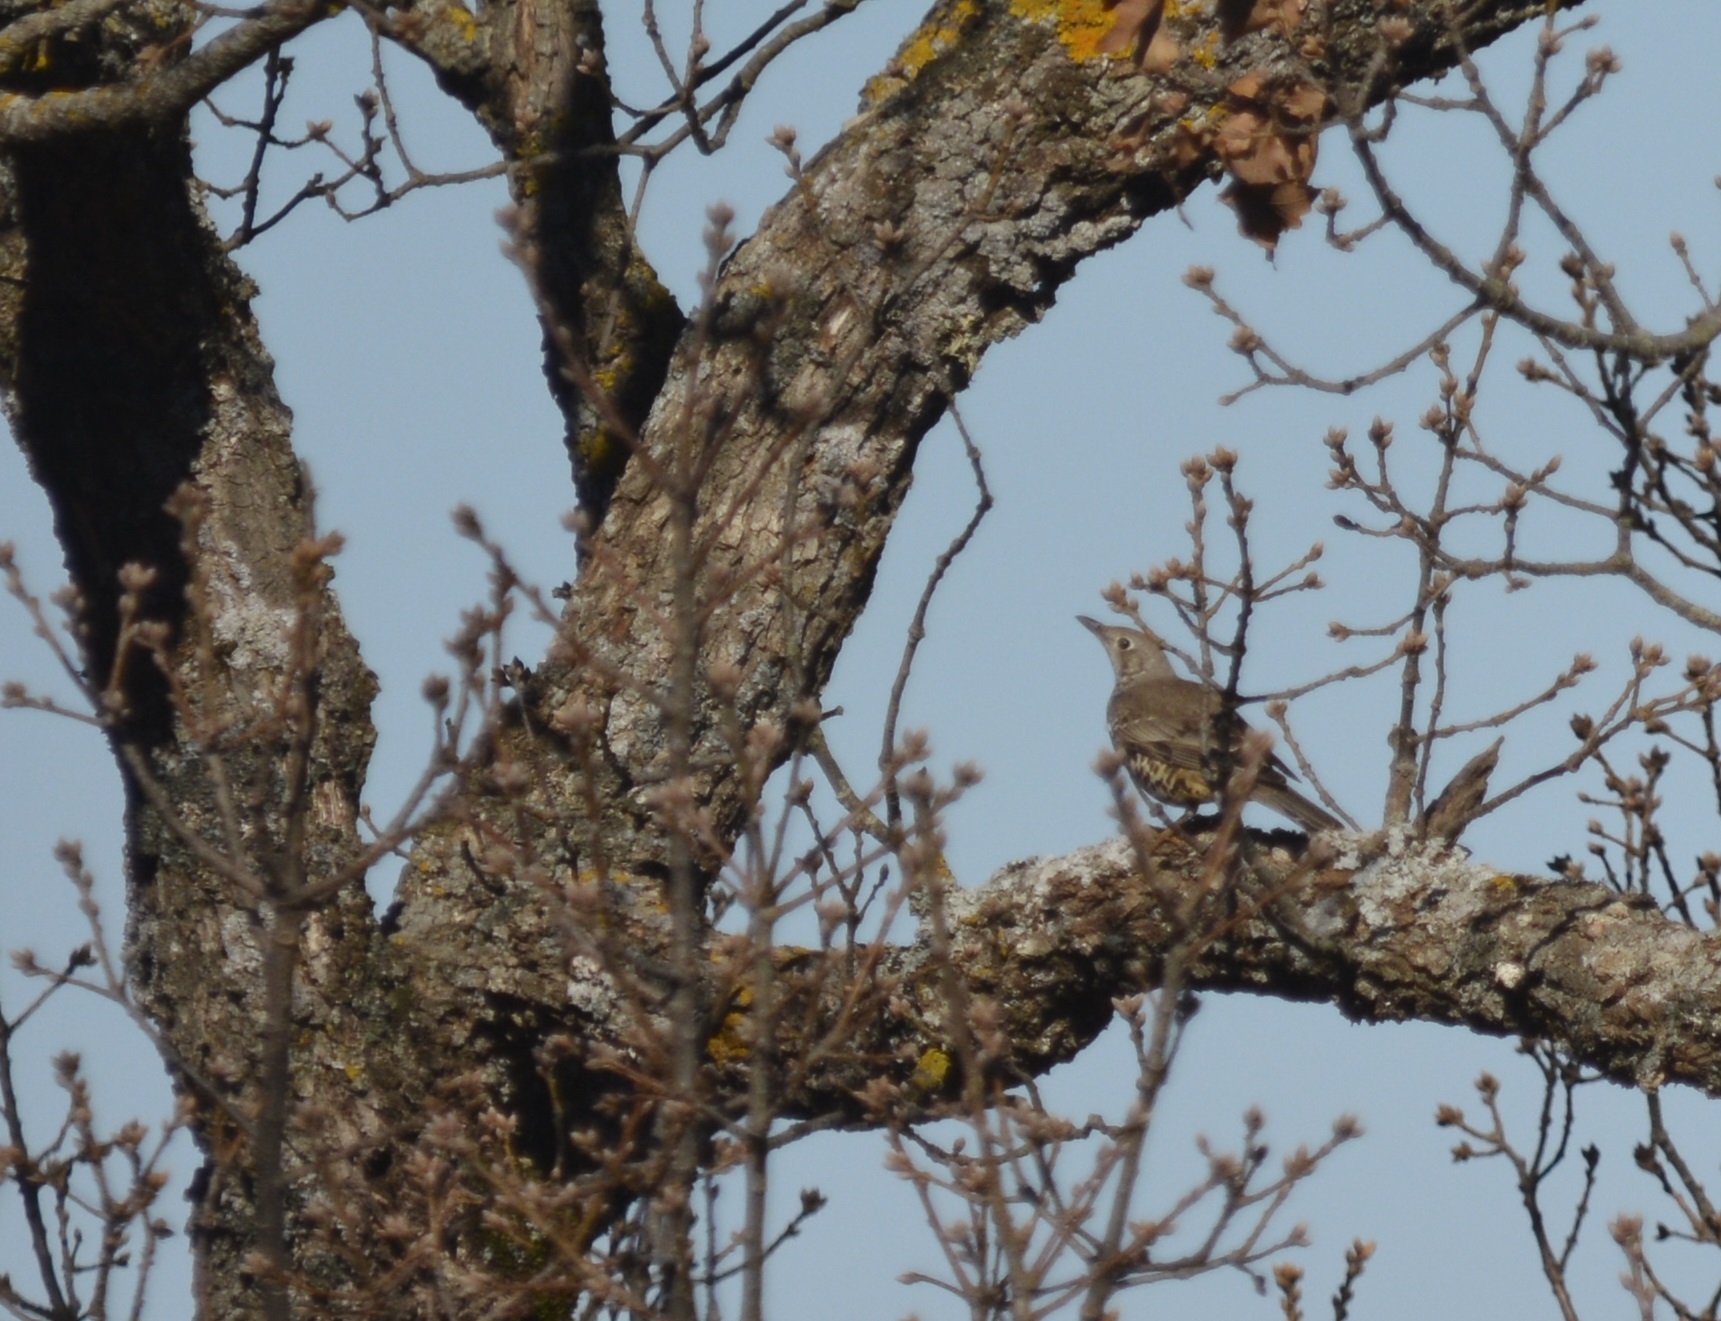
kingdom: Animalia
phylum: Chordata
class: Aves
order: Passeriformes
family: Turdidae
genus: Turdus
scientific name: Turdus viscivorus
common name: Mistle thrush
